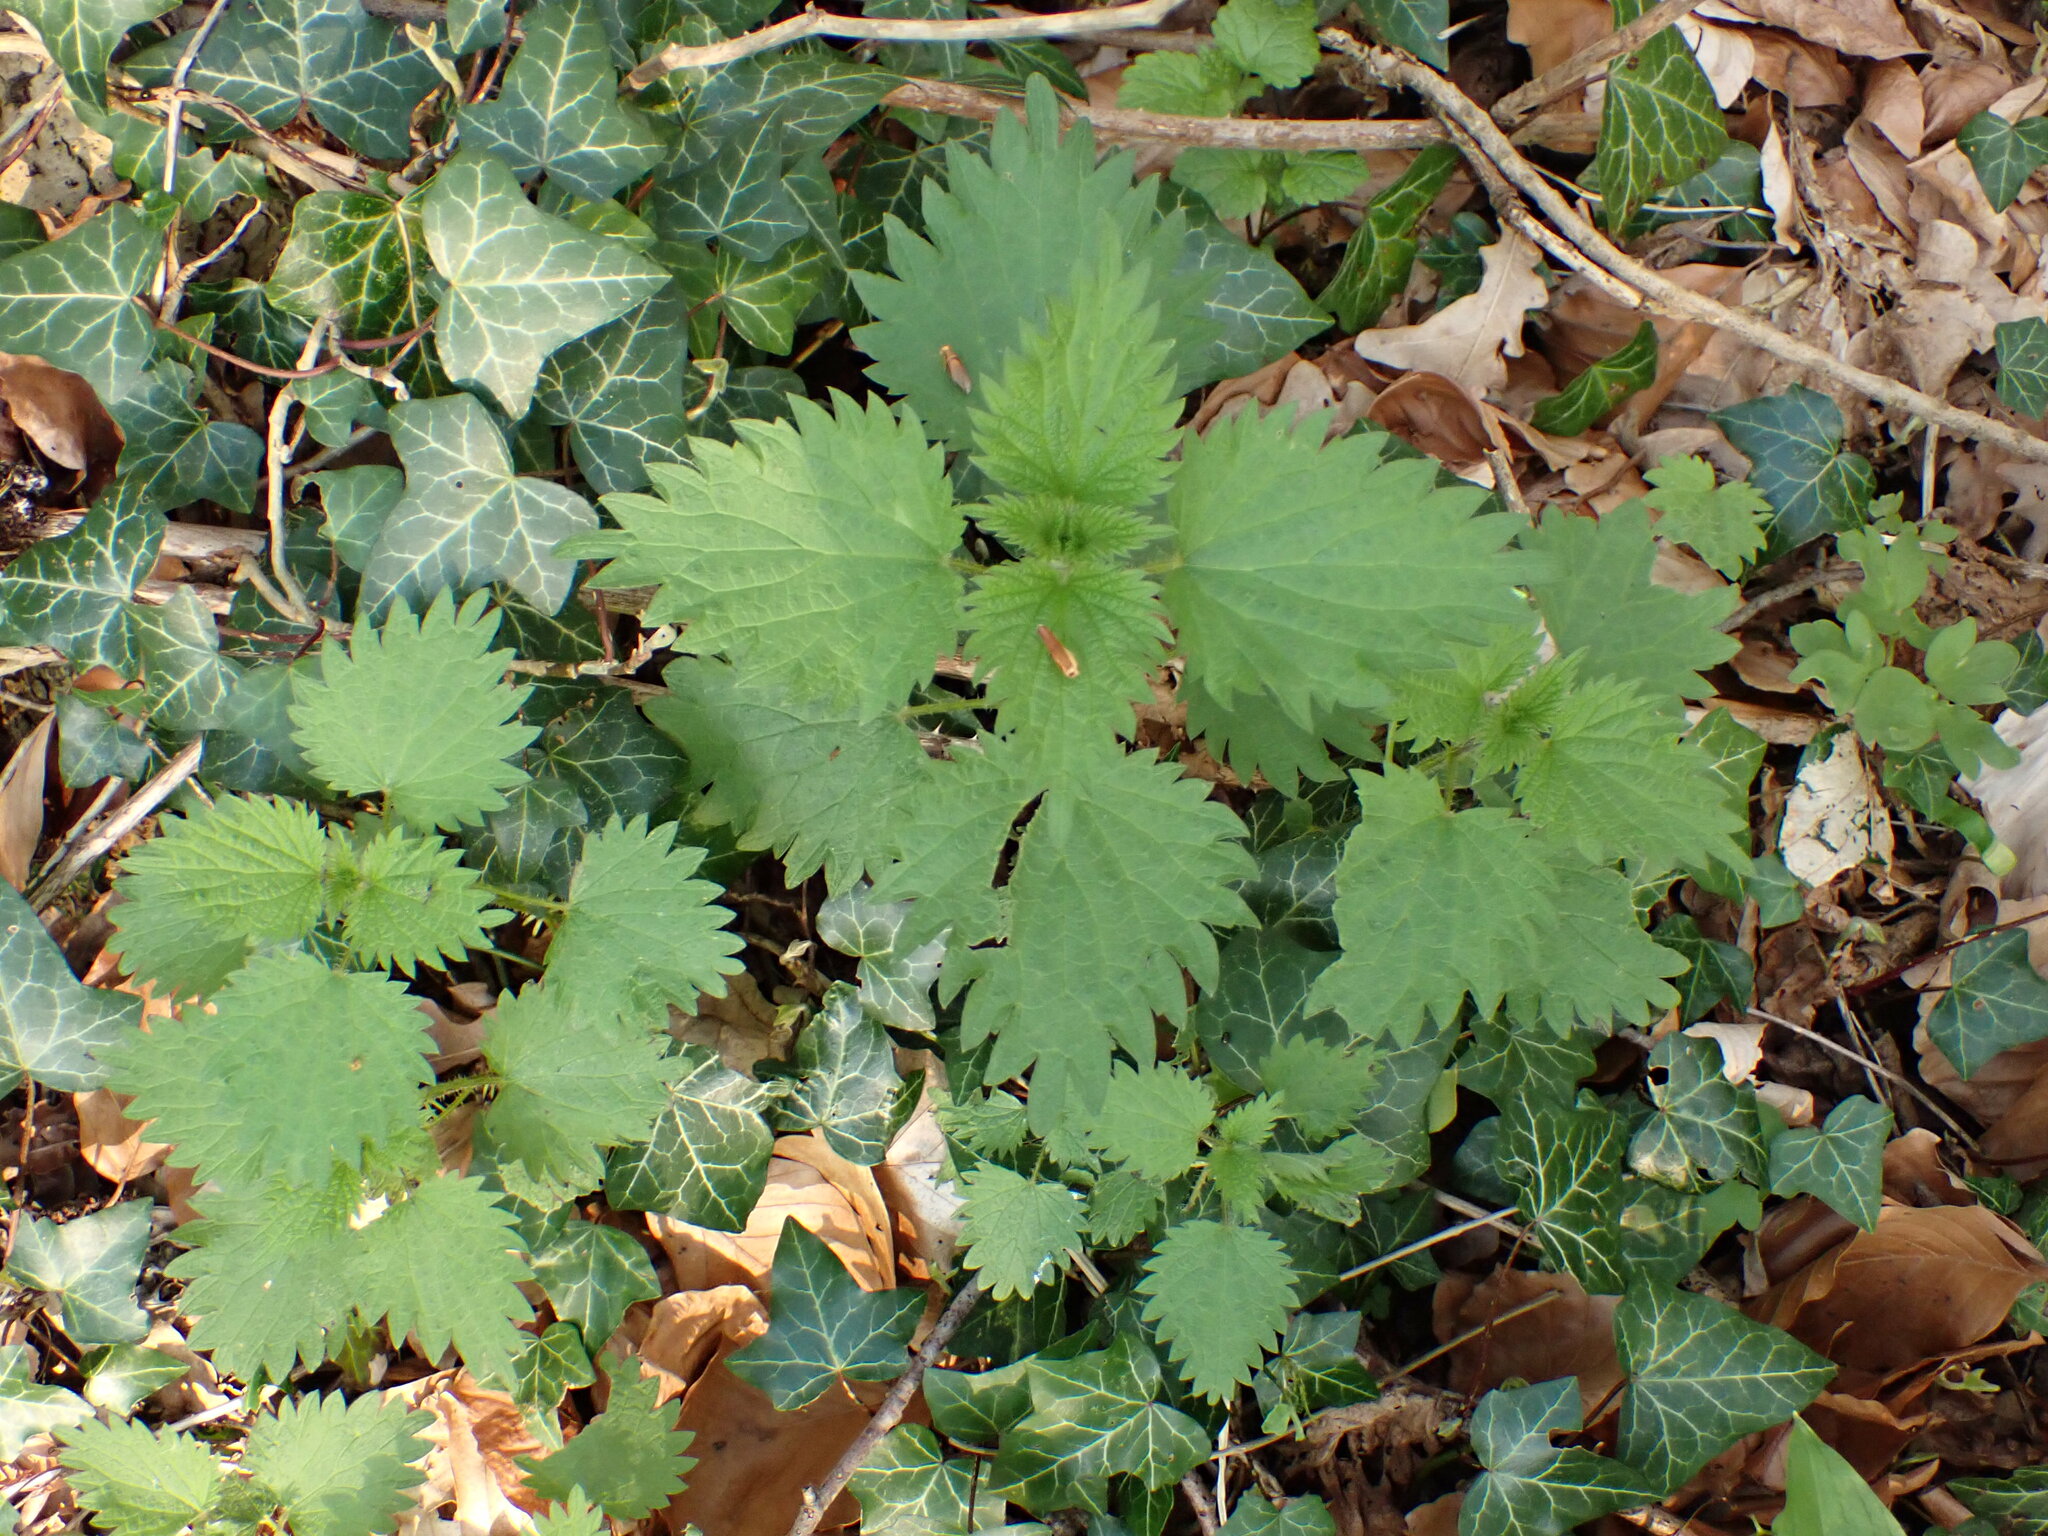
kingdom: Plantae
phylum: Tracheophyta
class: Magnoliopsida
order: Rosales
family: Urticaceae
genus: Urtica
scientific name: Urtica dioica
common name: Common nettle
